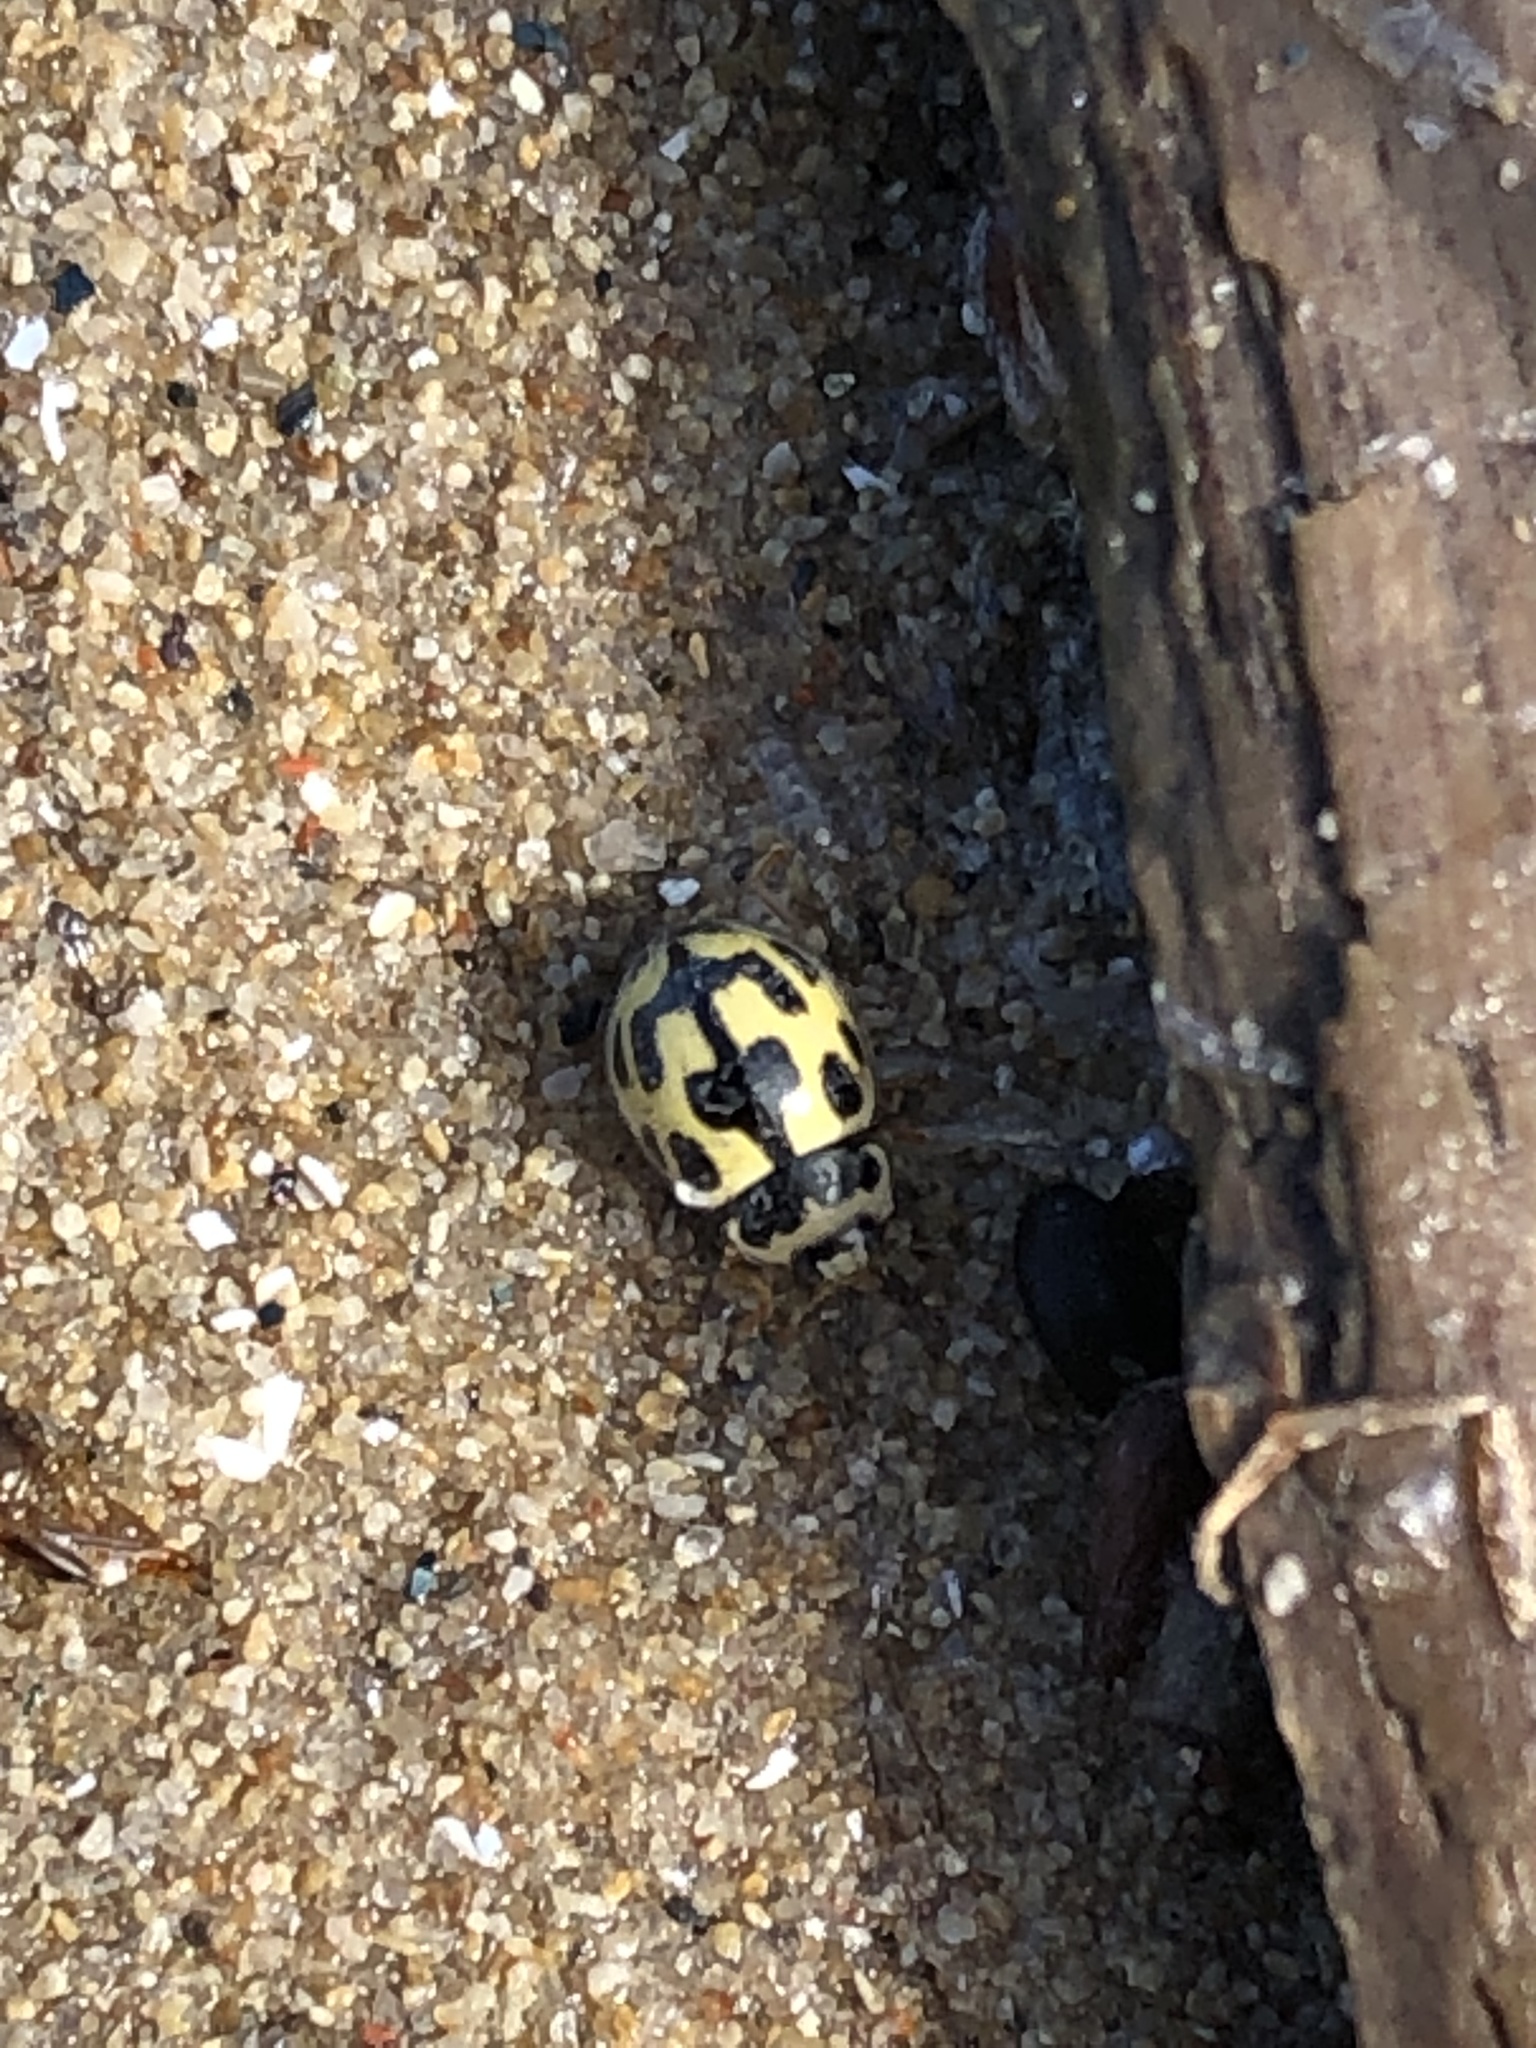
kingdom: Animalia
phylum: Arthropoda
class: Insecta
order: Coleoptera
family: Coccinellidae
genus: Propylaea
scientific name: Propylaea quatuordecimpunctata
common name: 14-spotted ladybird beetle
